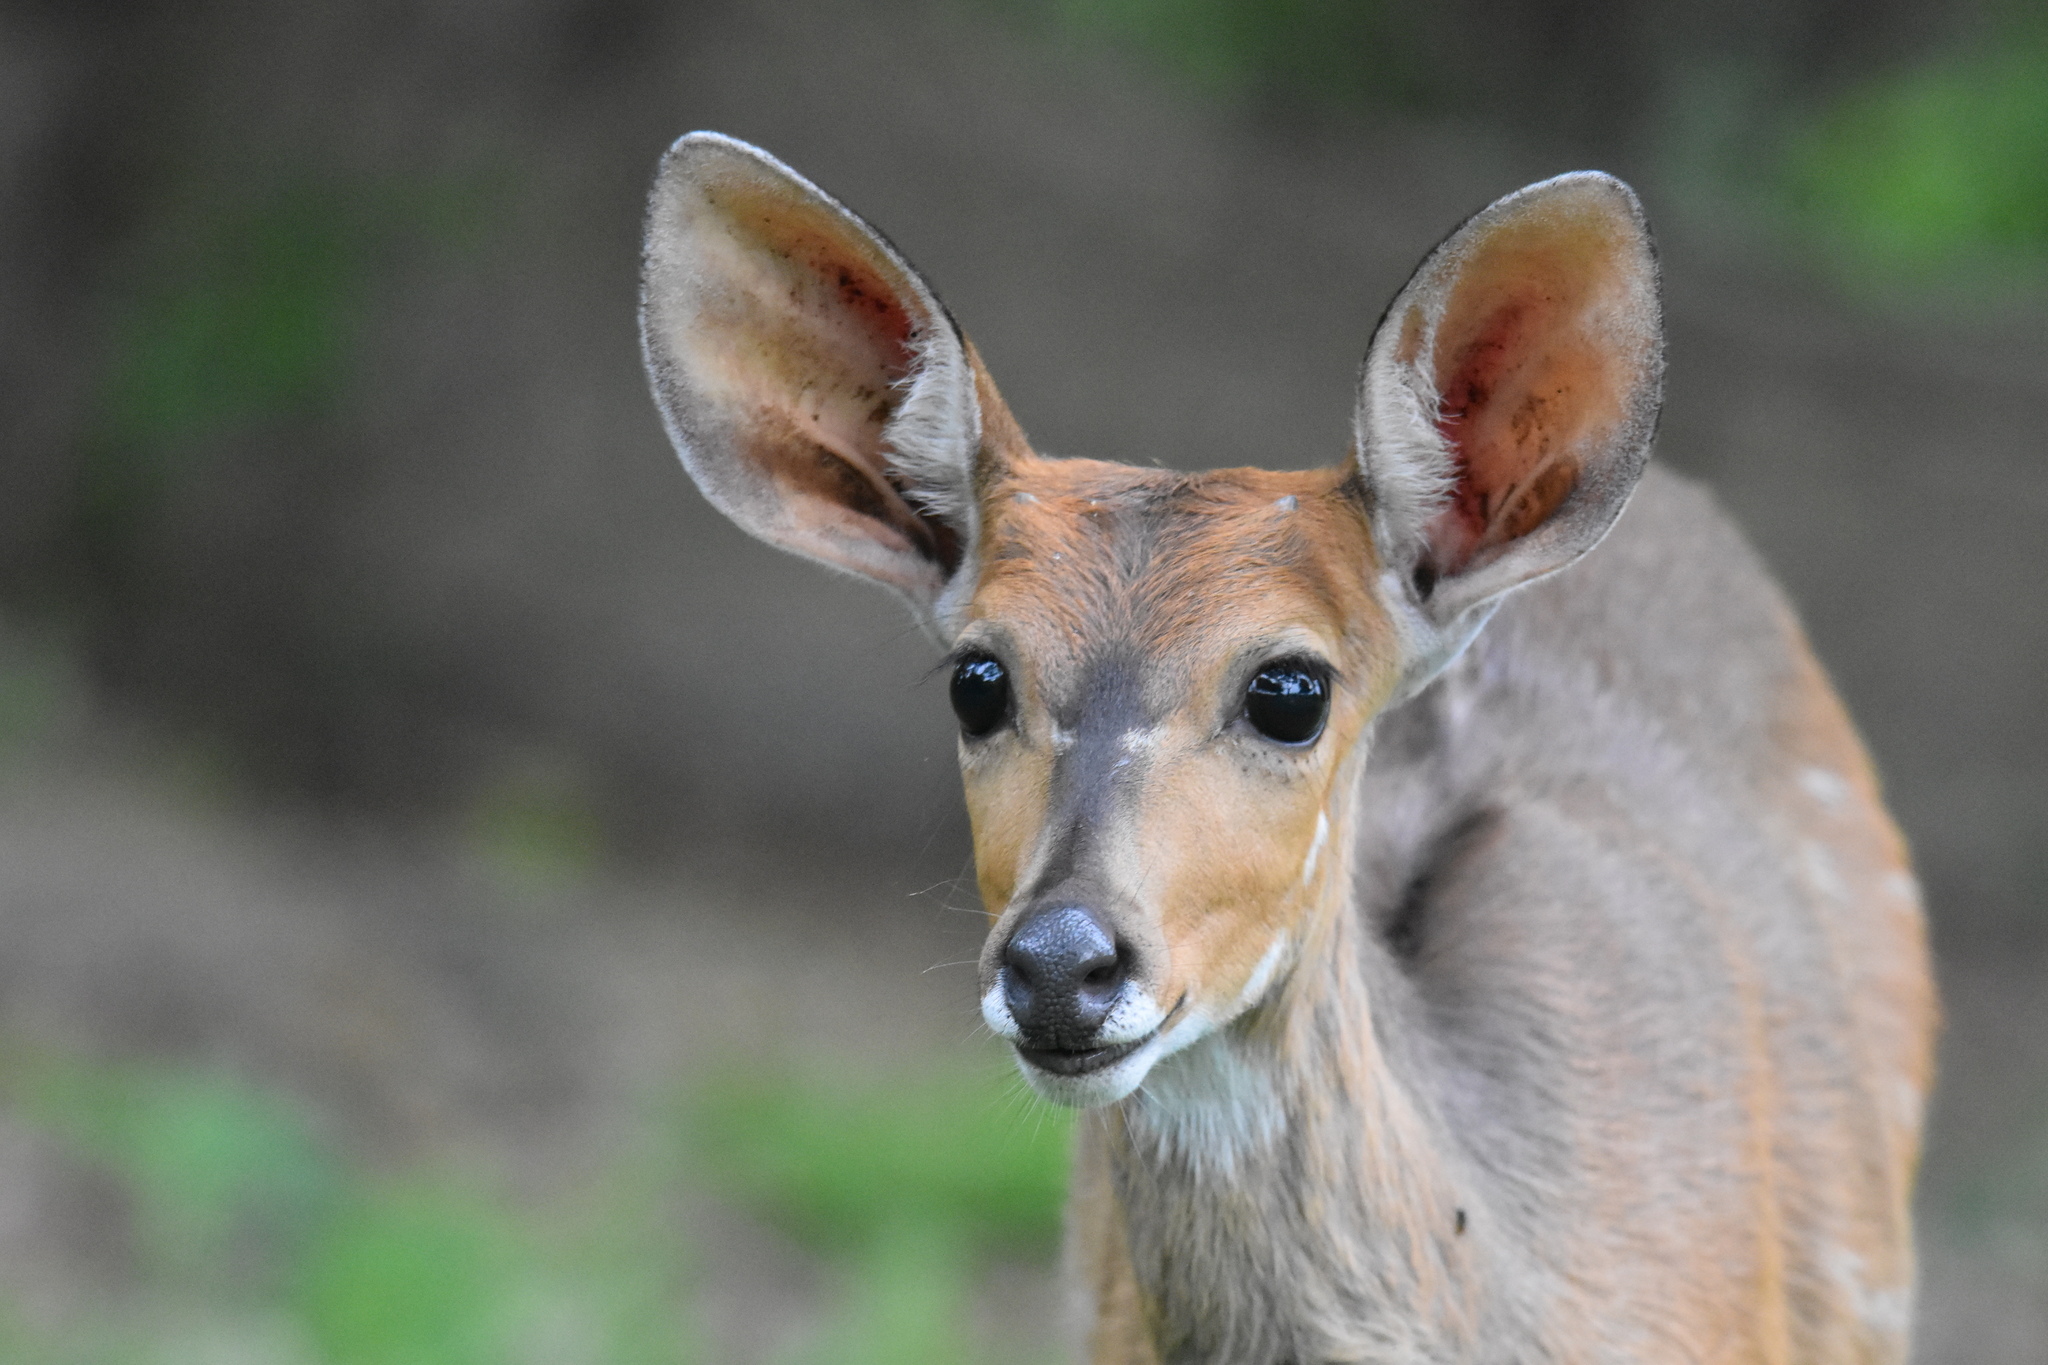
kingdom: Animalia
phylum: Chordata
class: Mammalia
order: Artiodactyla
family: Bovidae
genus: Tragelaphus
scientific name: Tragelaphus scriptus
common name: Bushbuck
